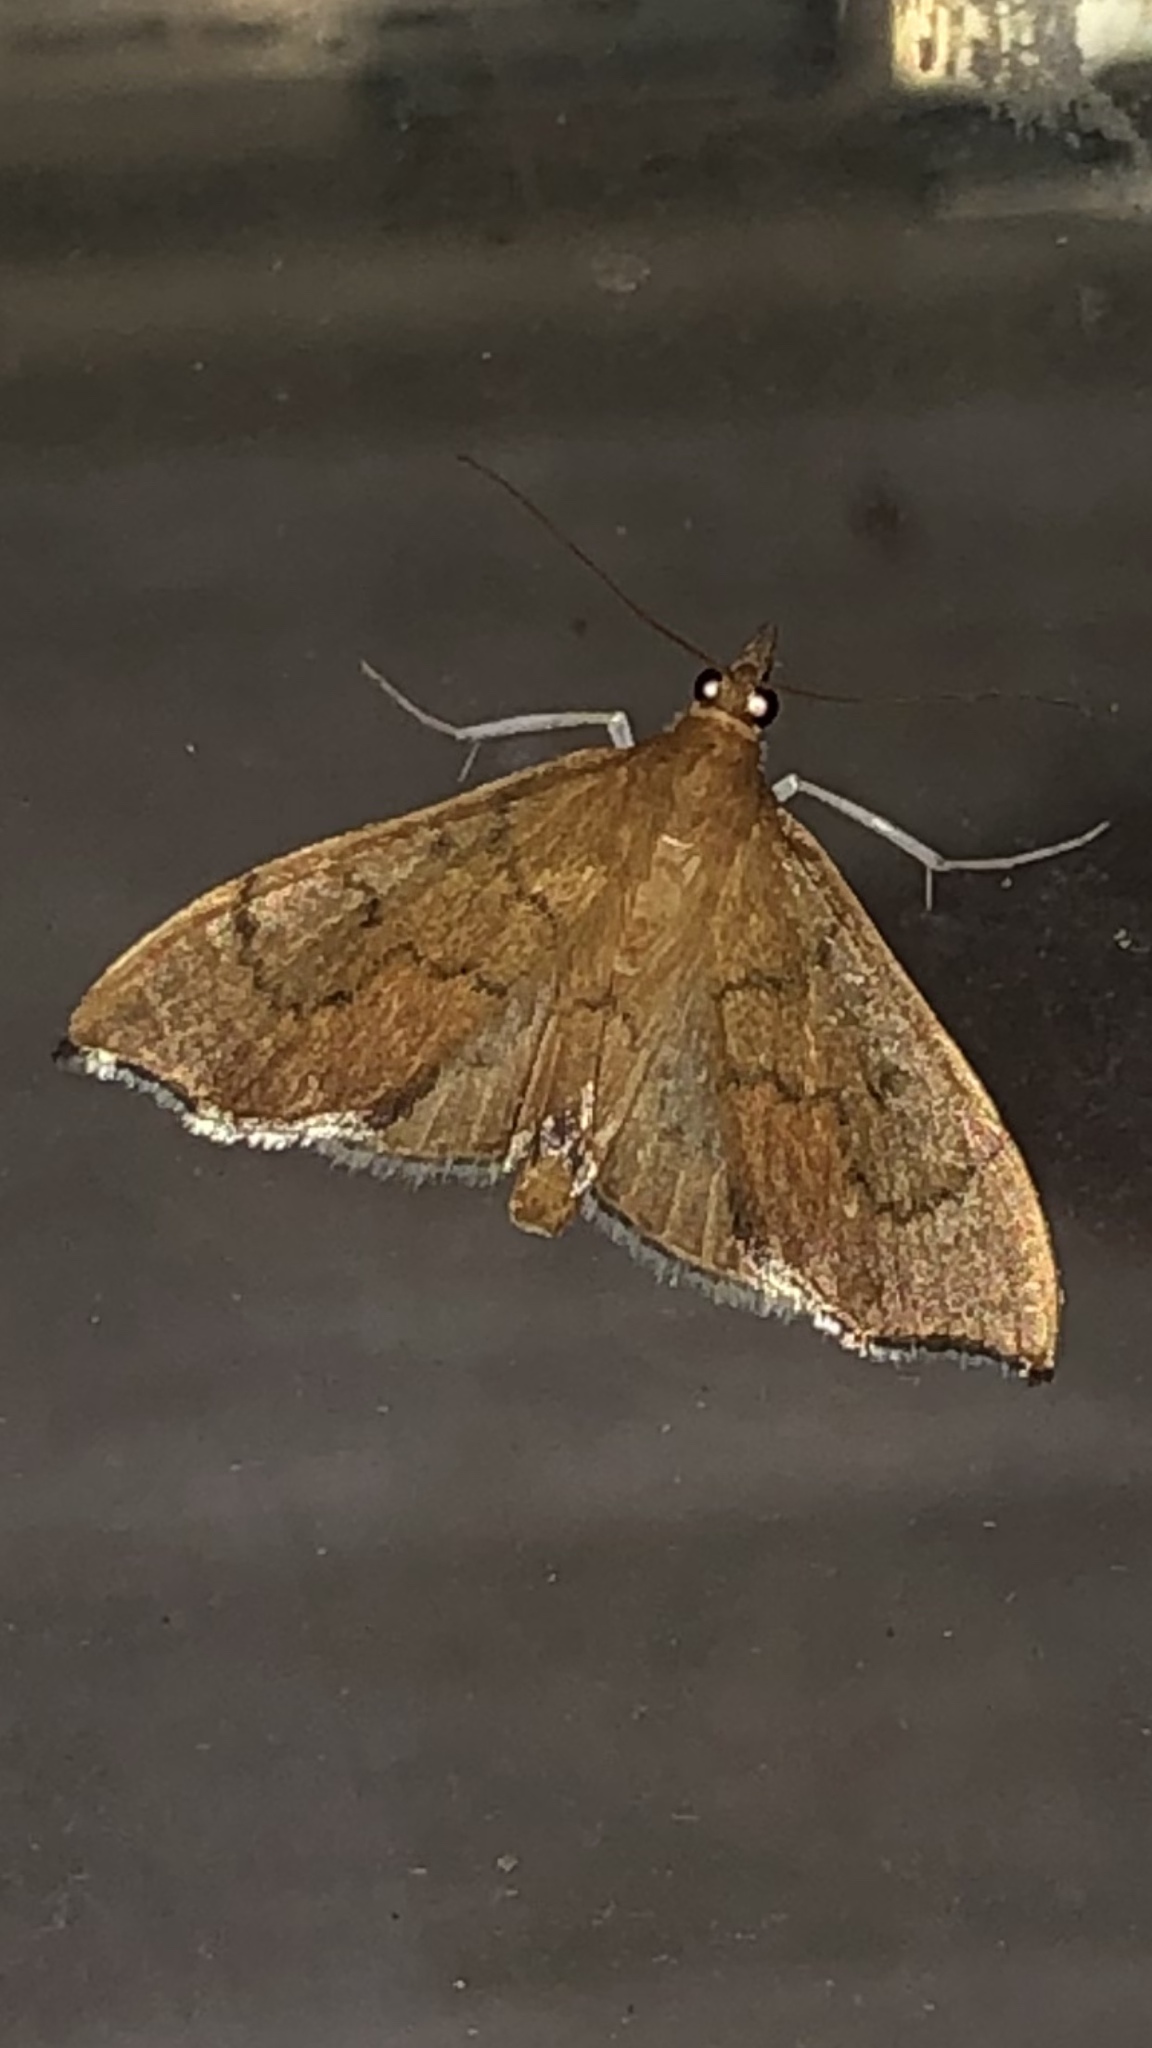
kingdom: Animalia
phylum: Arthropoda
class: Insecta
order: Lepidoptera
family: Crambidae
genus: Sericoplaga
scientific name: Sericoplaga externalis
